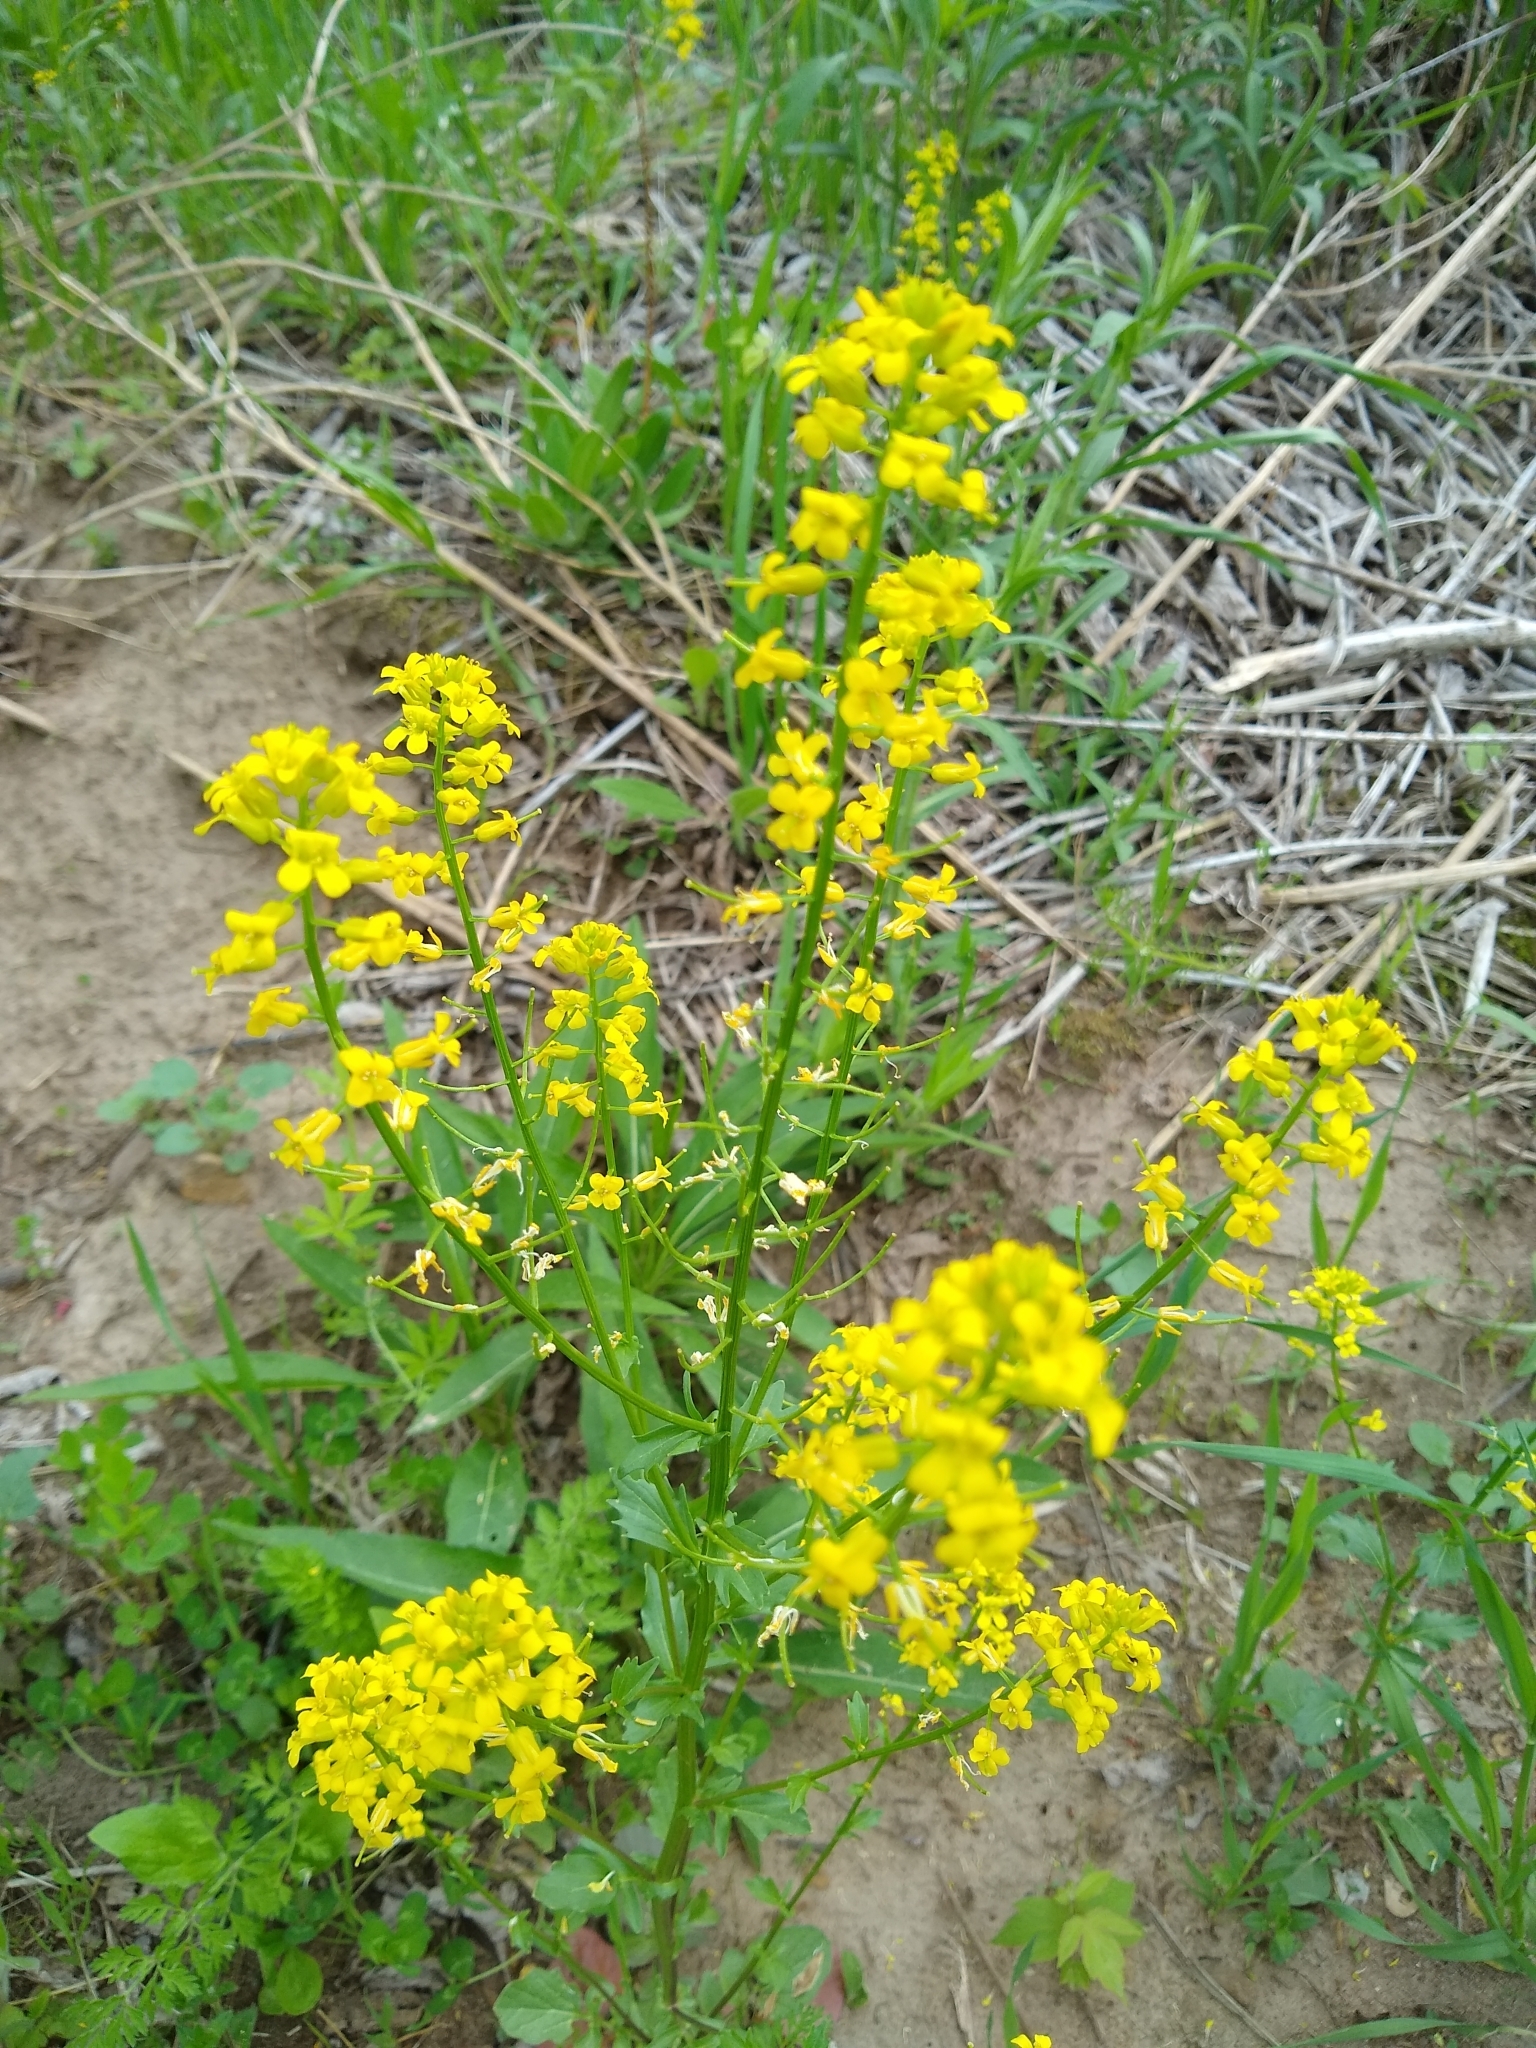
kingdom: Plantae
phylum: Tracheophyta
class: Magnoliopsida
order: Brassicales
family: Brassicaceae
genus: Barbarea
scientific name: Barbarea vulgaris
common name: Cressy-greens
